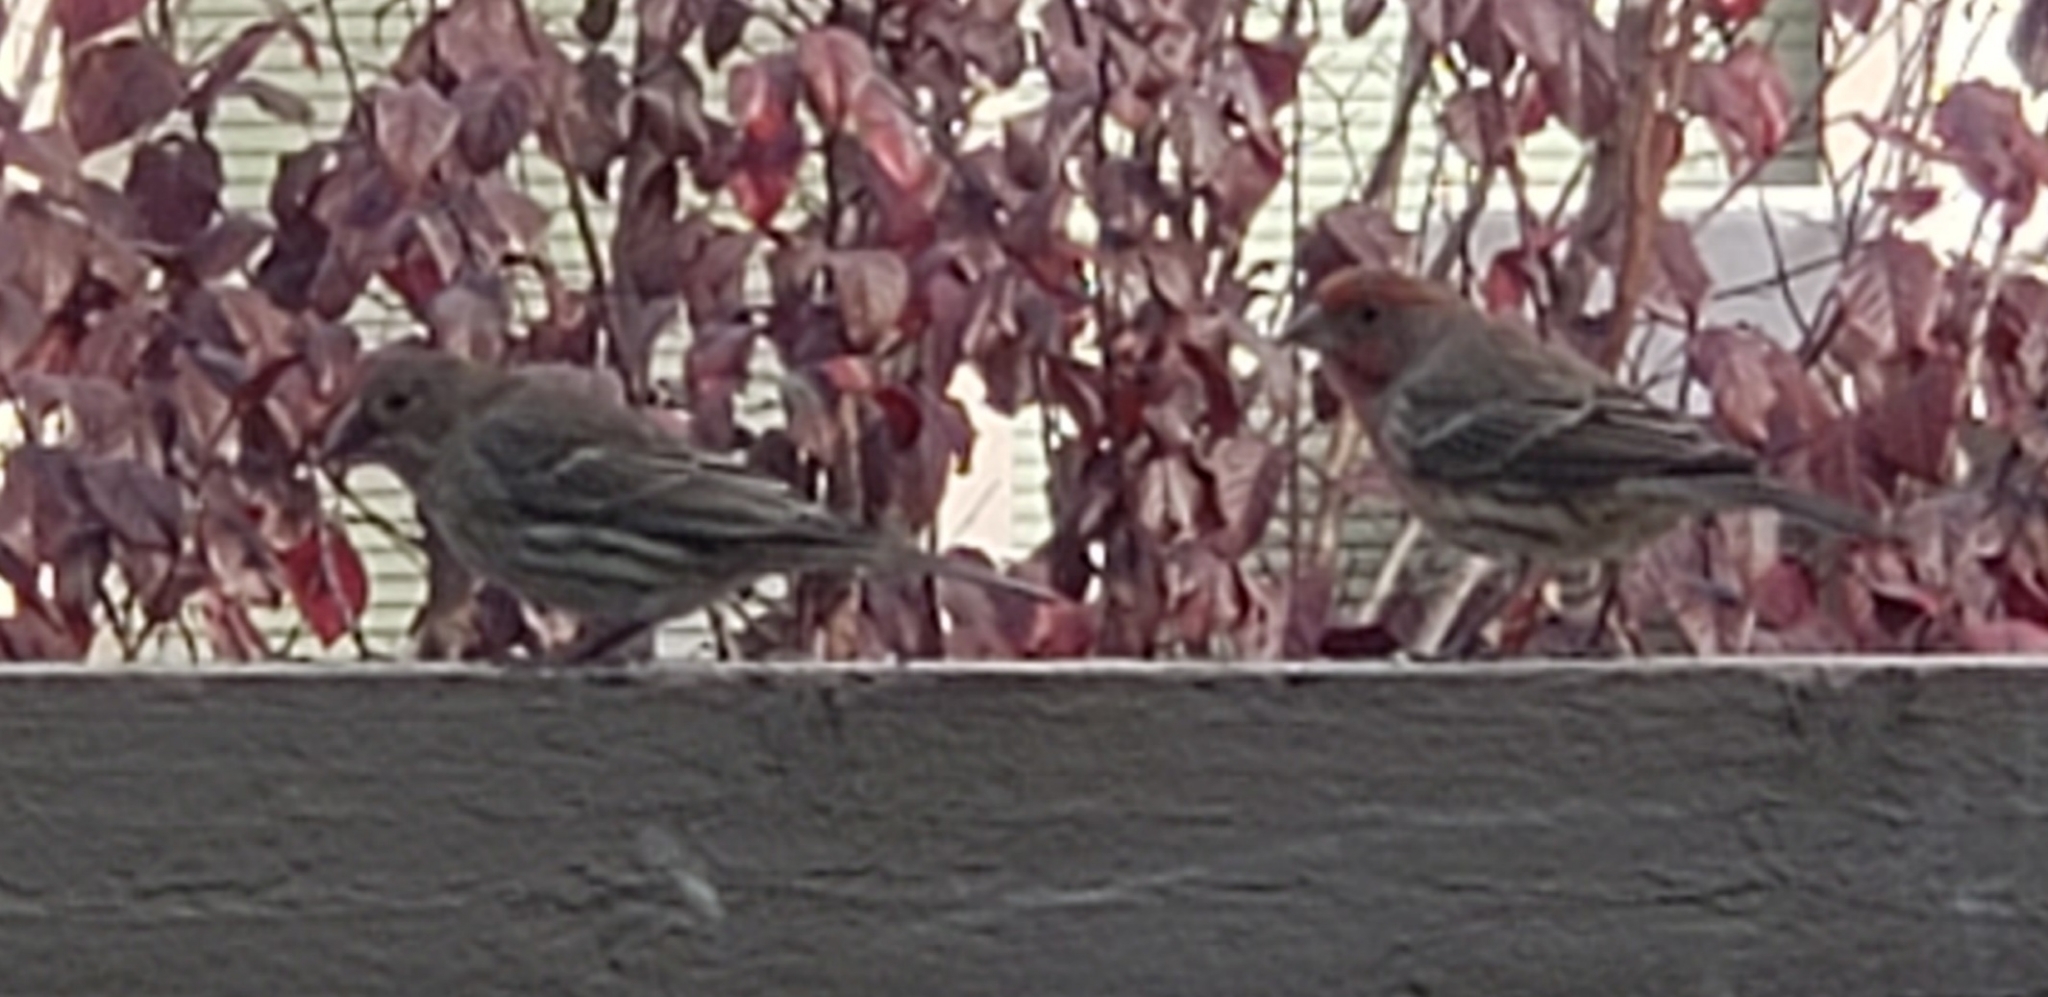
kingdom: Animalia
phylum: Chordata
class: Aves
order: Passeriformes
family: Fringillidae
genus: Haemorhous
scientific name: Haemorhous mexicanus
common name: House finch
